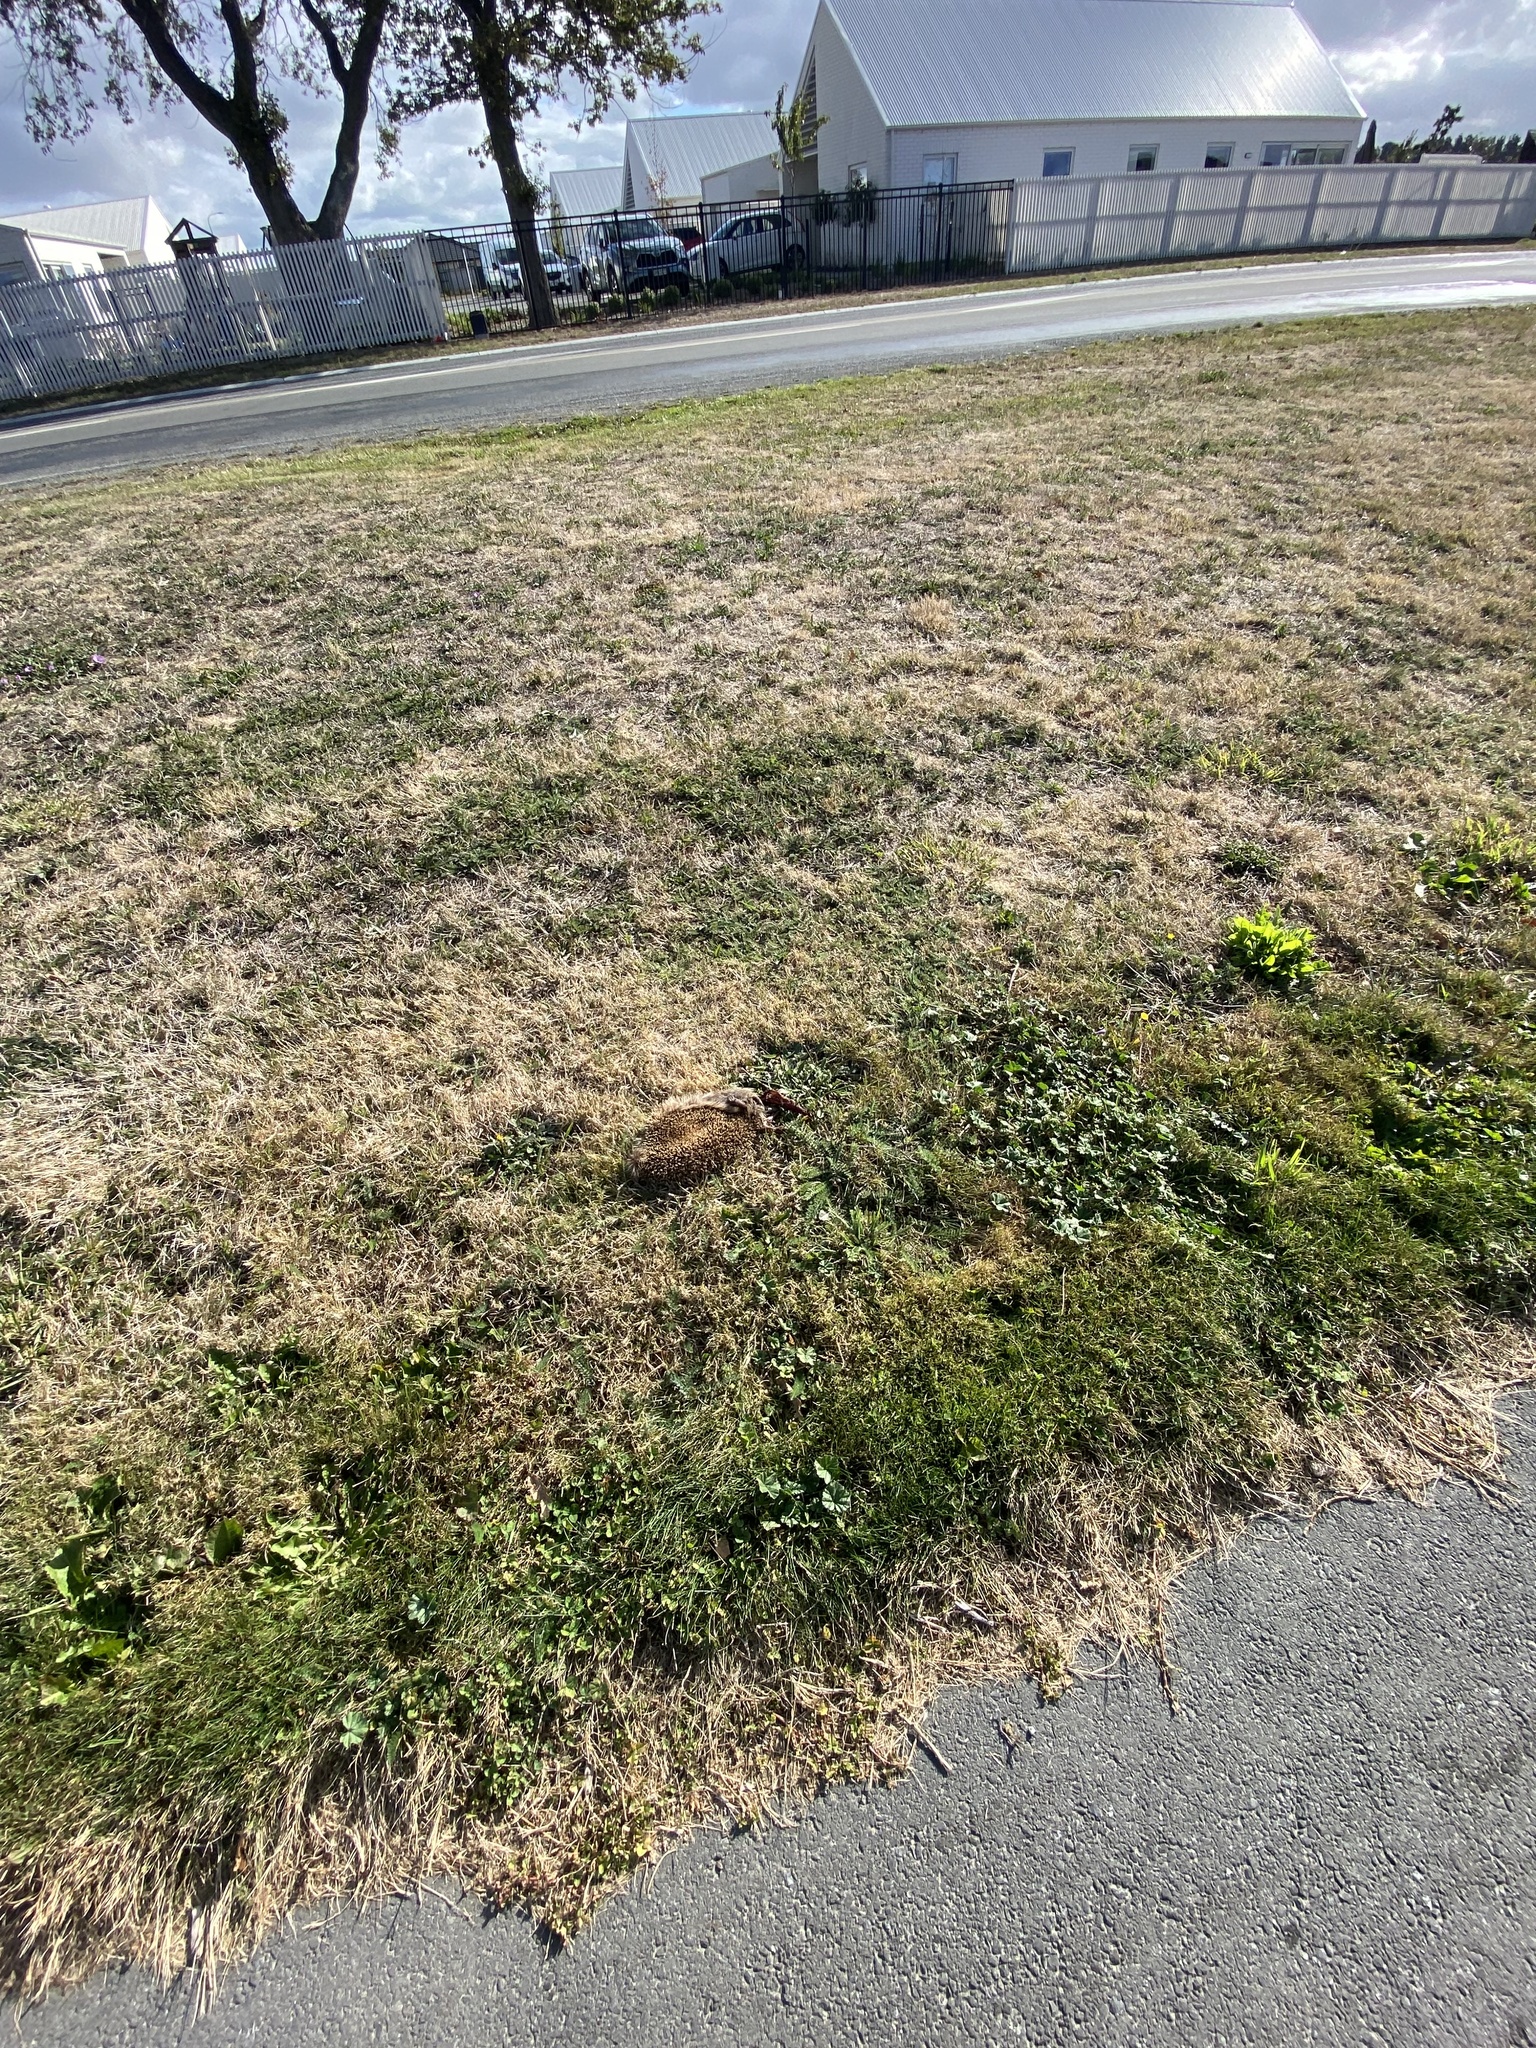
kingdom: Animalia
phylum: Chordata
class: Mammalia
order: Erinaceomorpha
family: Erinaceidae
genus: Erinaceus
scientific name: Erinaceus europaeus
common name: West european hedgehog
